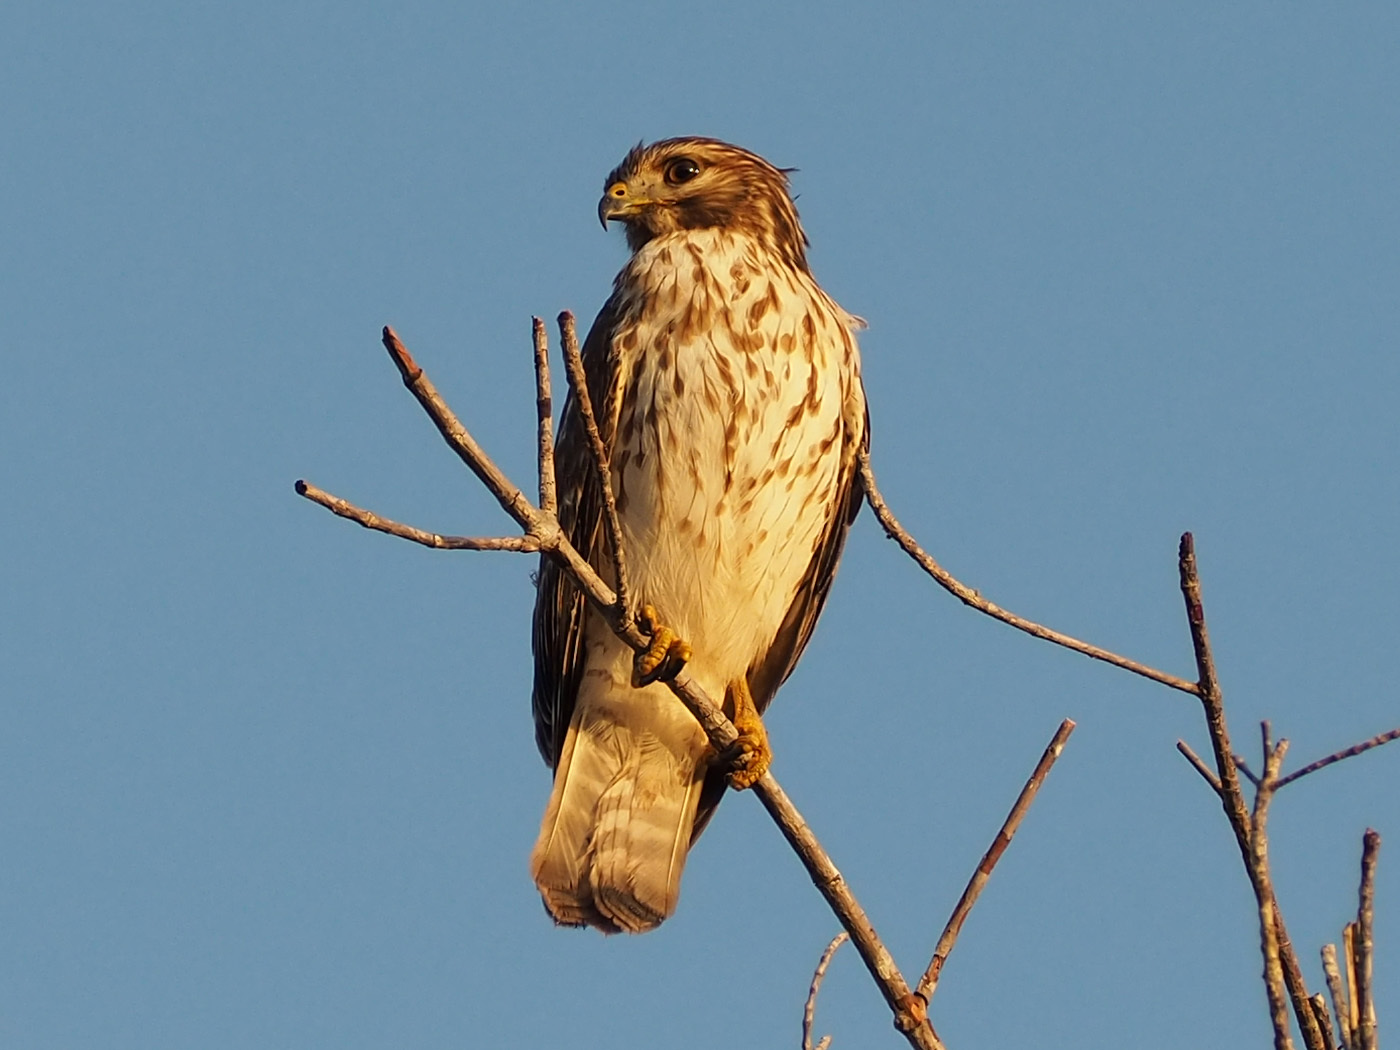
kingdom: Animalia
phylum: Chordata
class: Aves
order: Accipitriformes
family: Accipitridae
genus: Buteo
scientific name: Buteo lineatus
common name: Red-shouldered hawk
